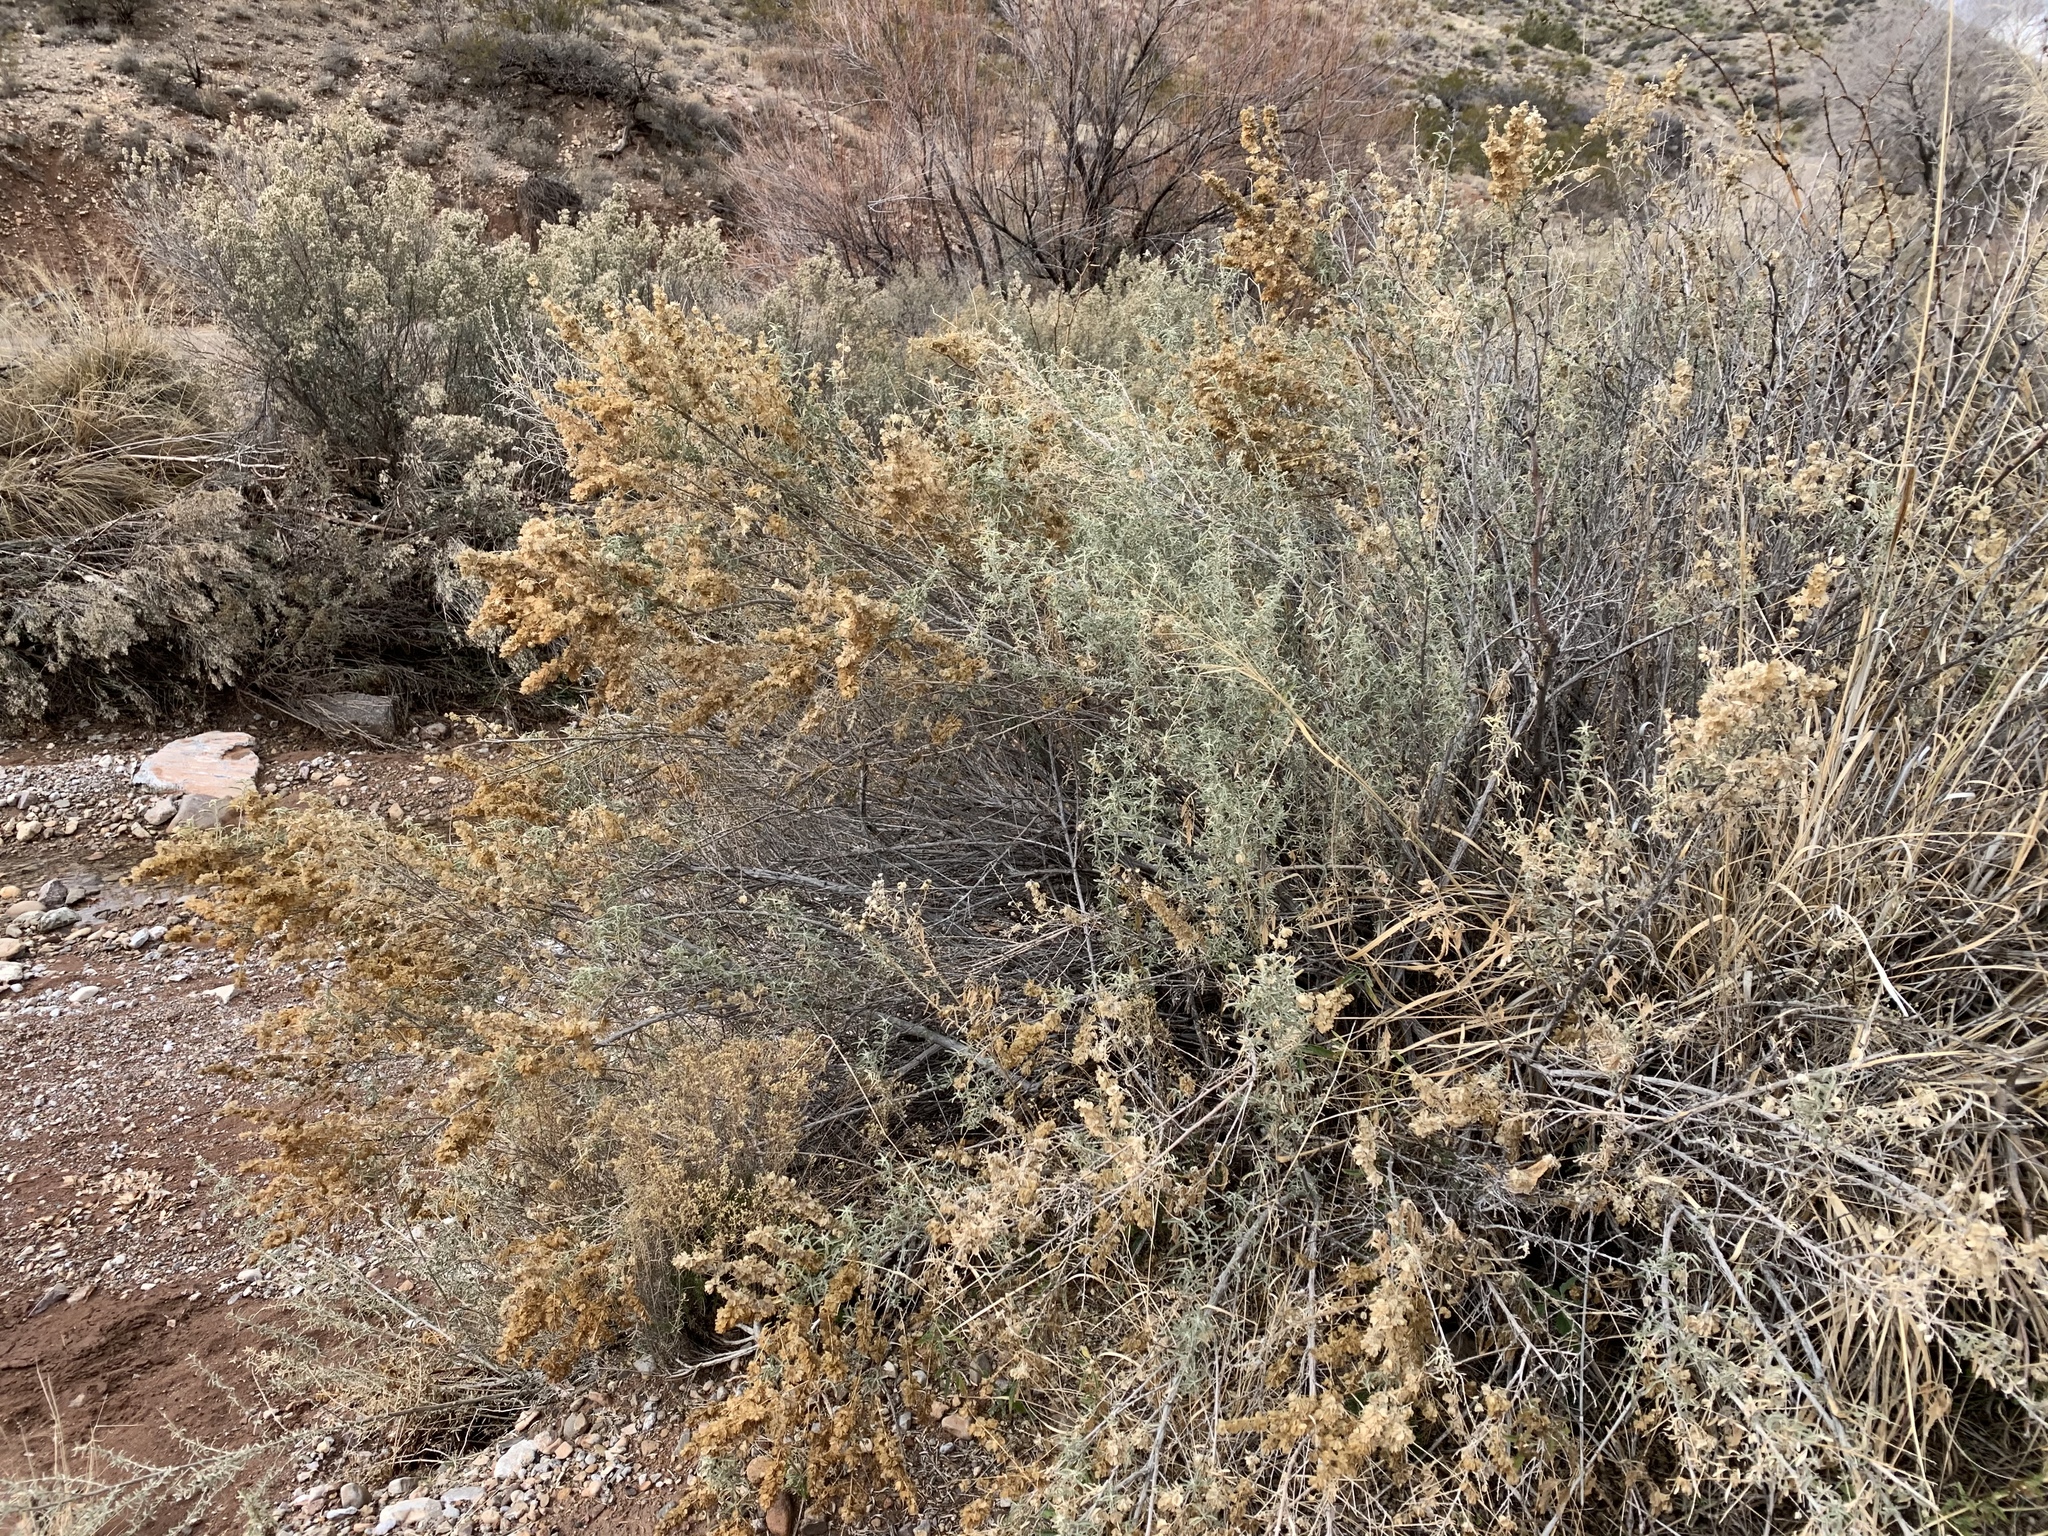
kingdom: Plantae
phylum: Tracheophyta
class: Magnoliopsida
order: Caryophyllales
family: Amaranthaceae
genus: Atriplex
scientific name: Atriplex canescens
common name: Four-wing saltbush
